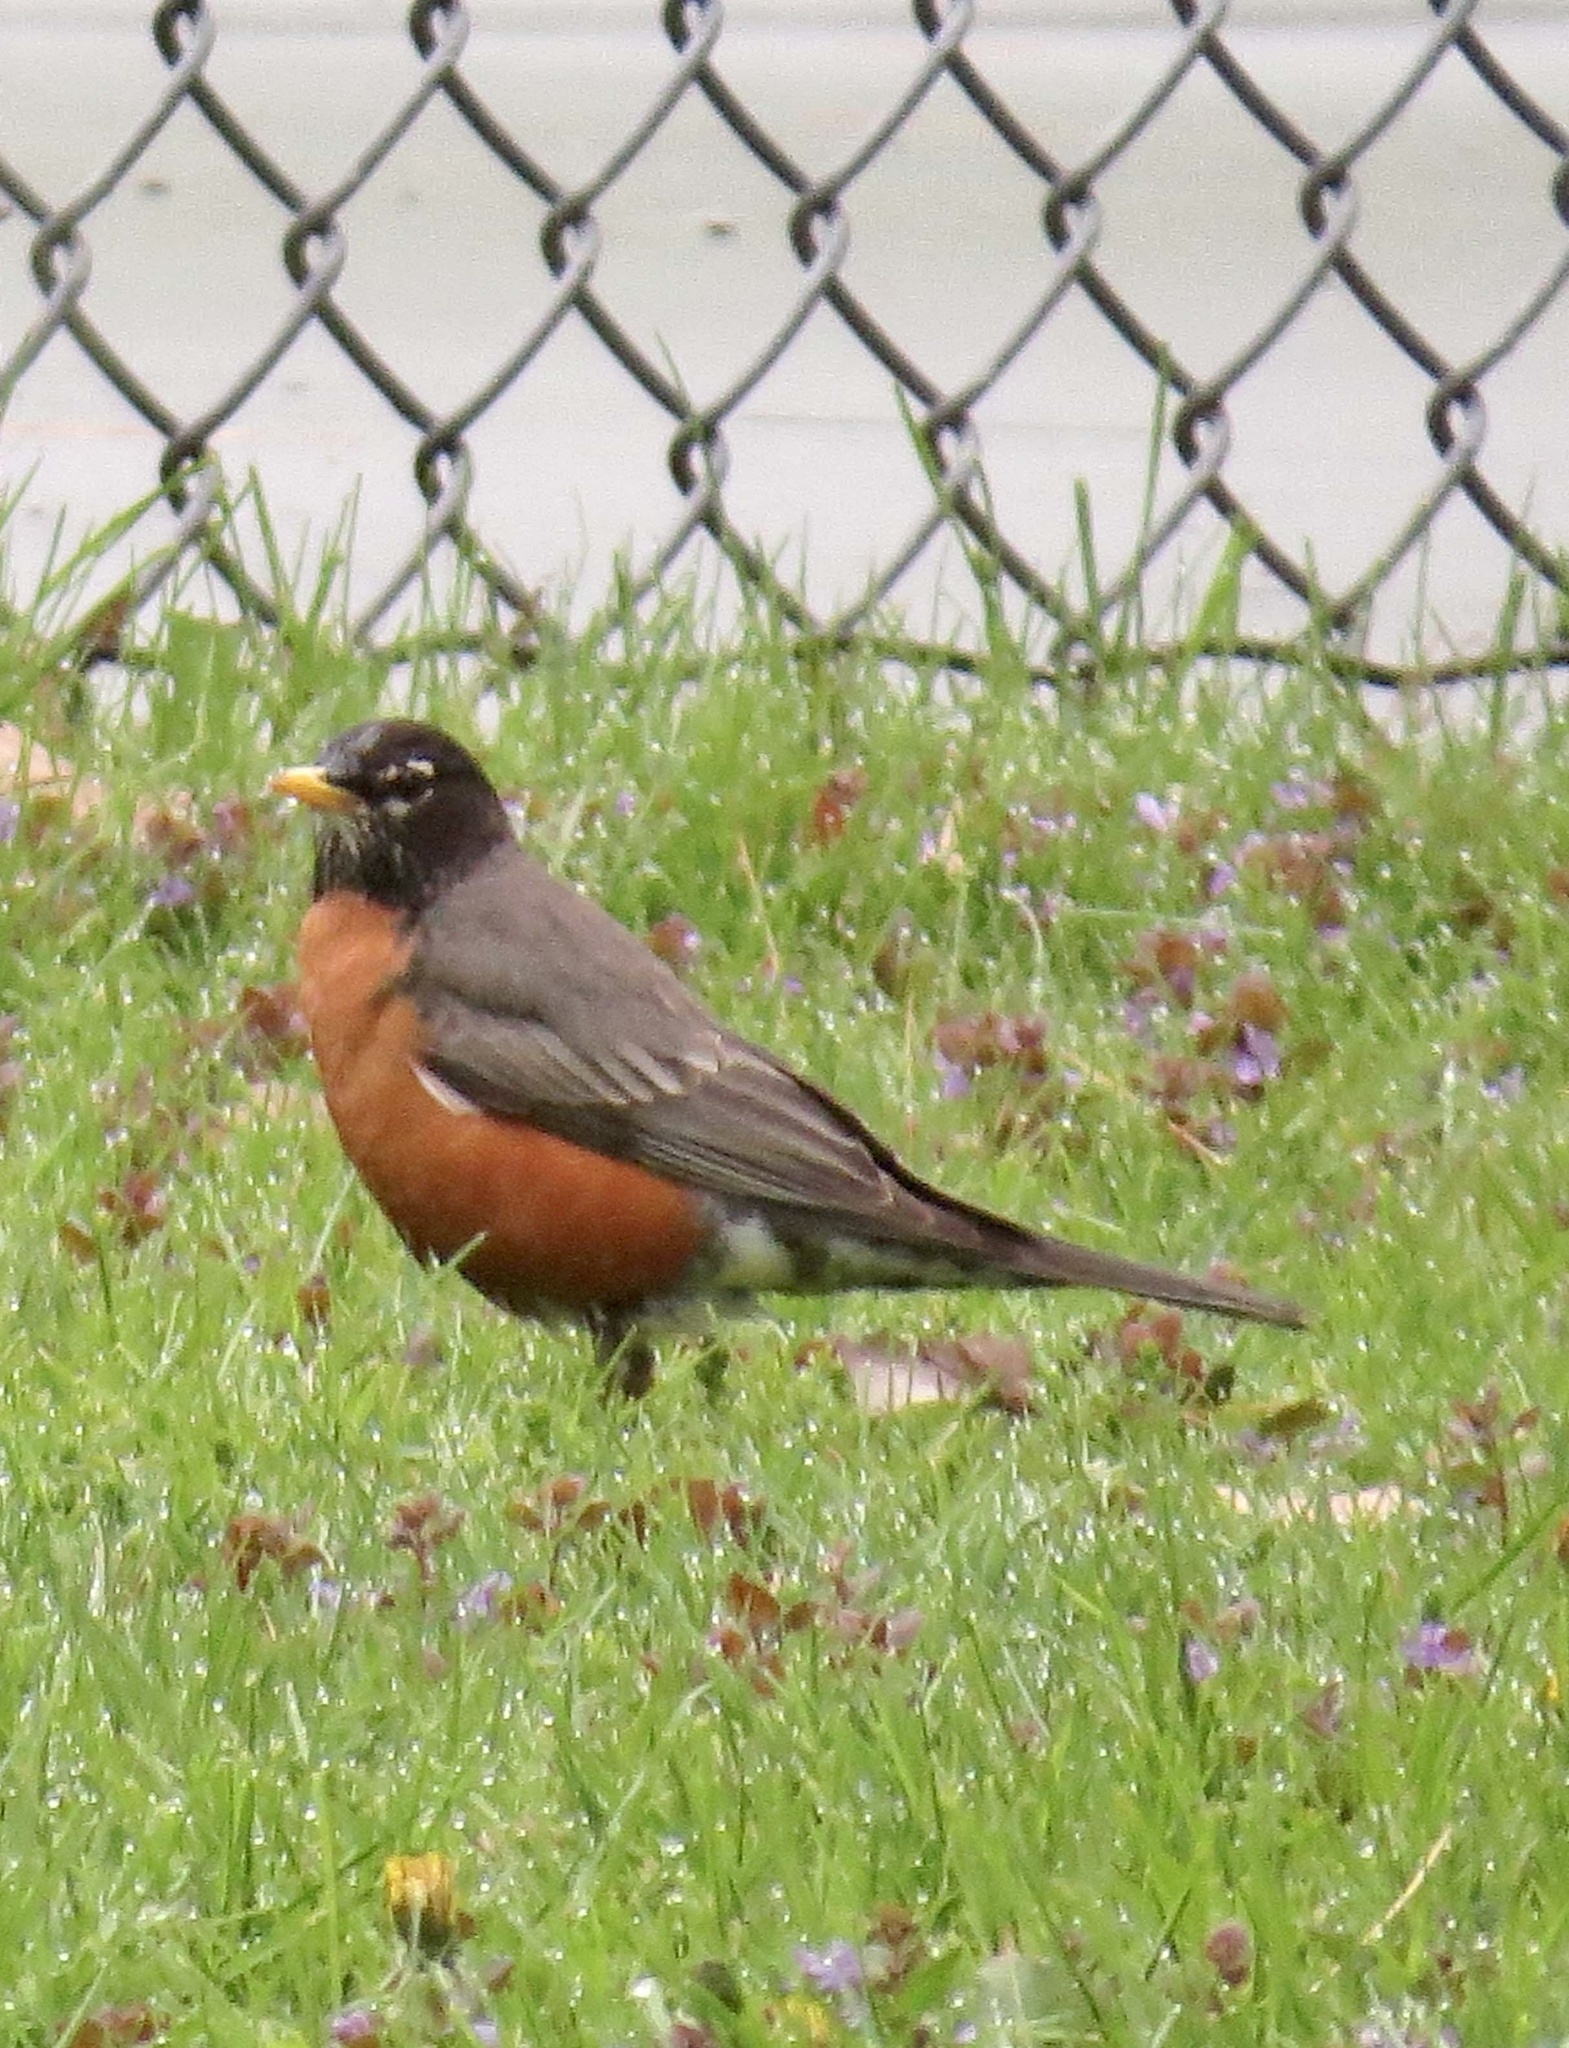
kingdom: Animalia
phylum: Chordata
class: Aves
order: Passeriformes
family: Turdidae
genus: Turdus
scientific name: Turdus migratorius
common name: American robin
